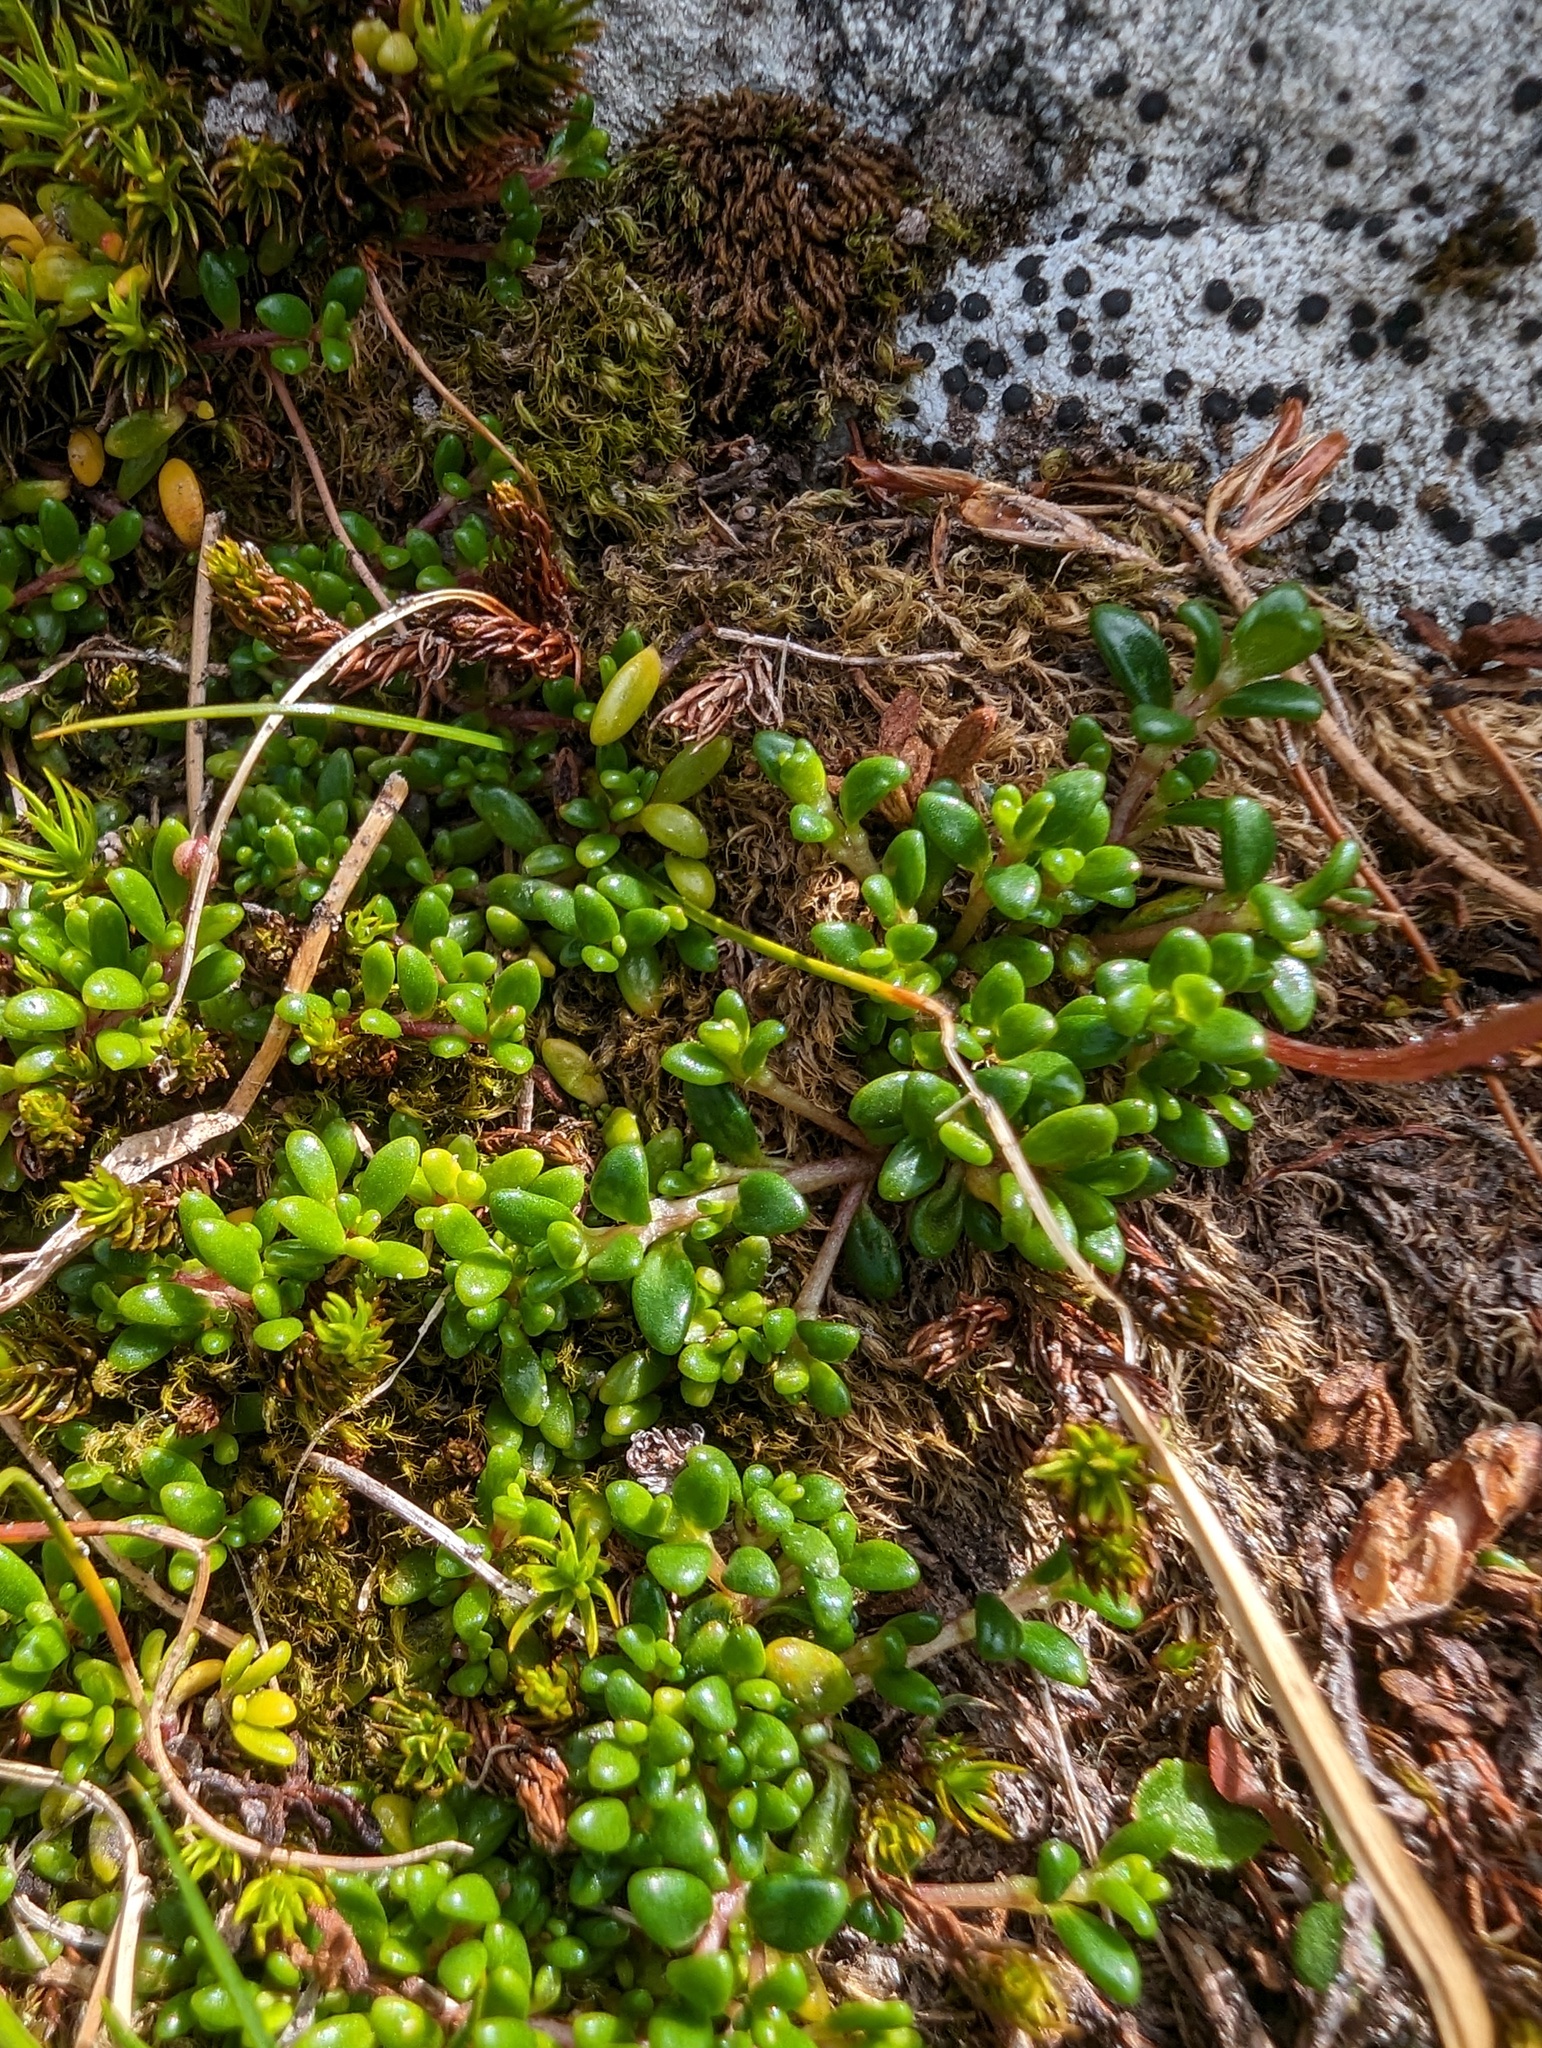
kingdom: Plantae
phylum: Tracheophyta
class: Magnoliopsida
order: Saxifragales
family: Saxifragaceae
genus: Micranthes
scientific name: Micranthes tolmiei
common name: Tolmie's saxifrage
